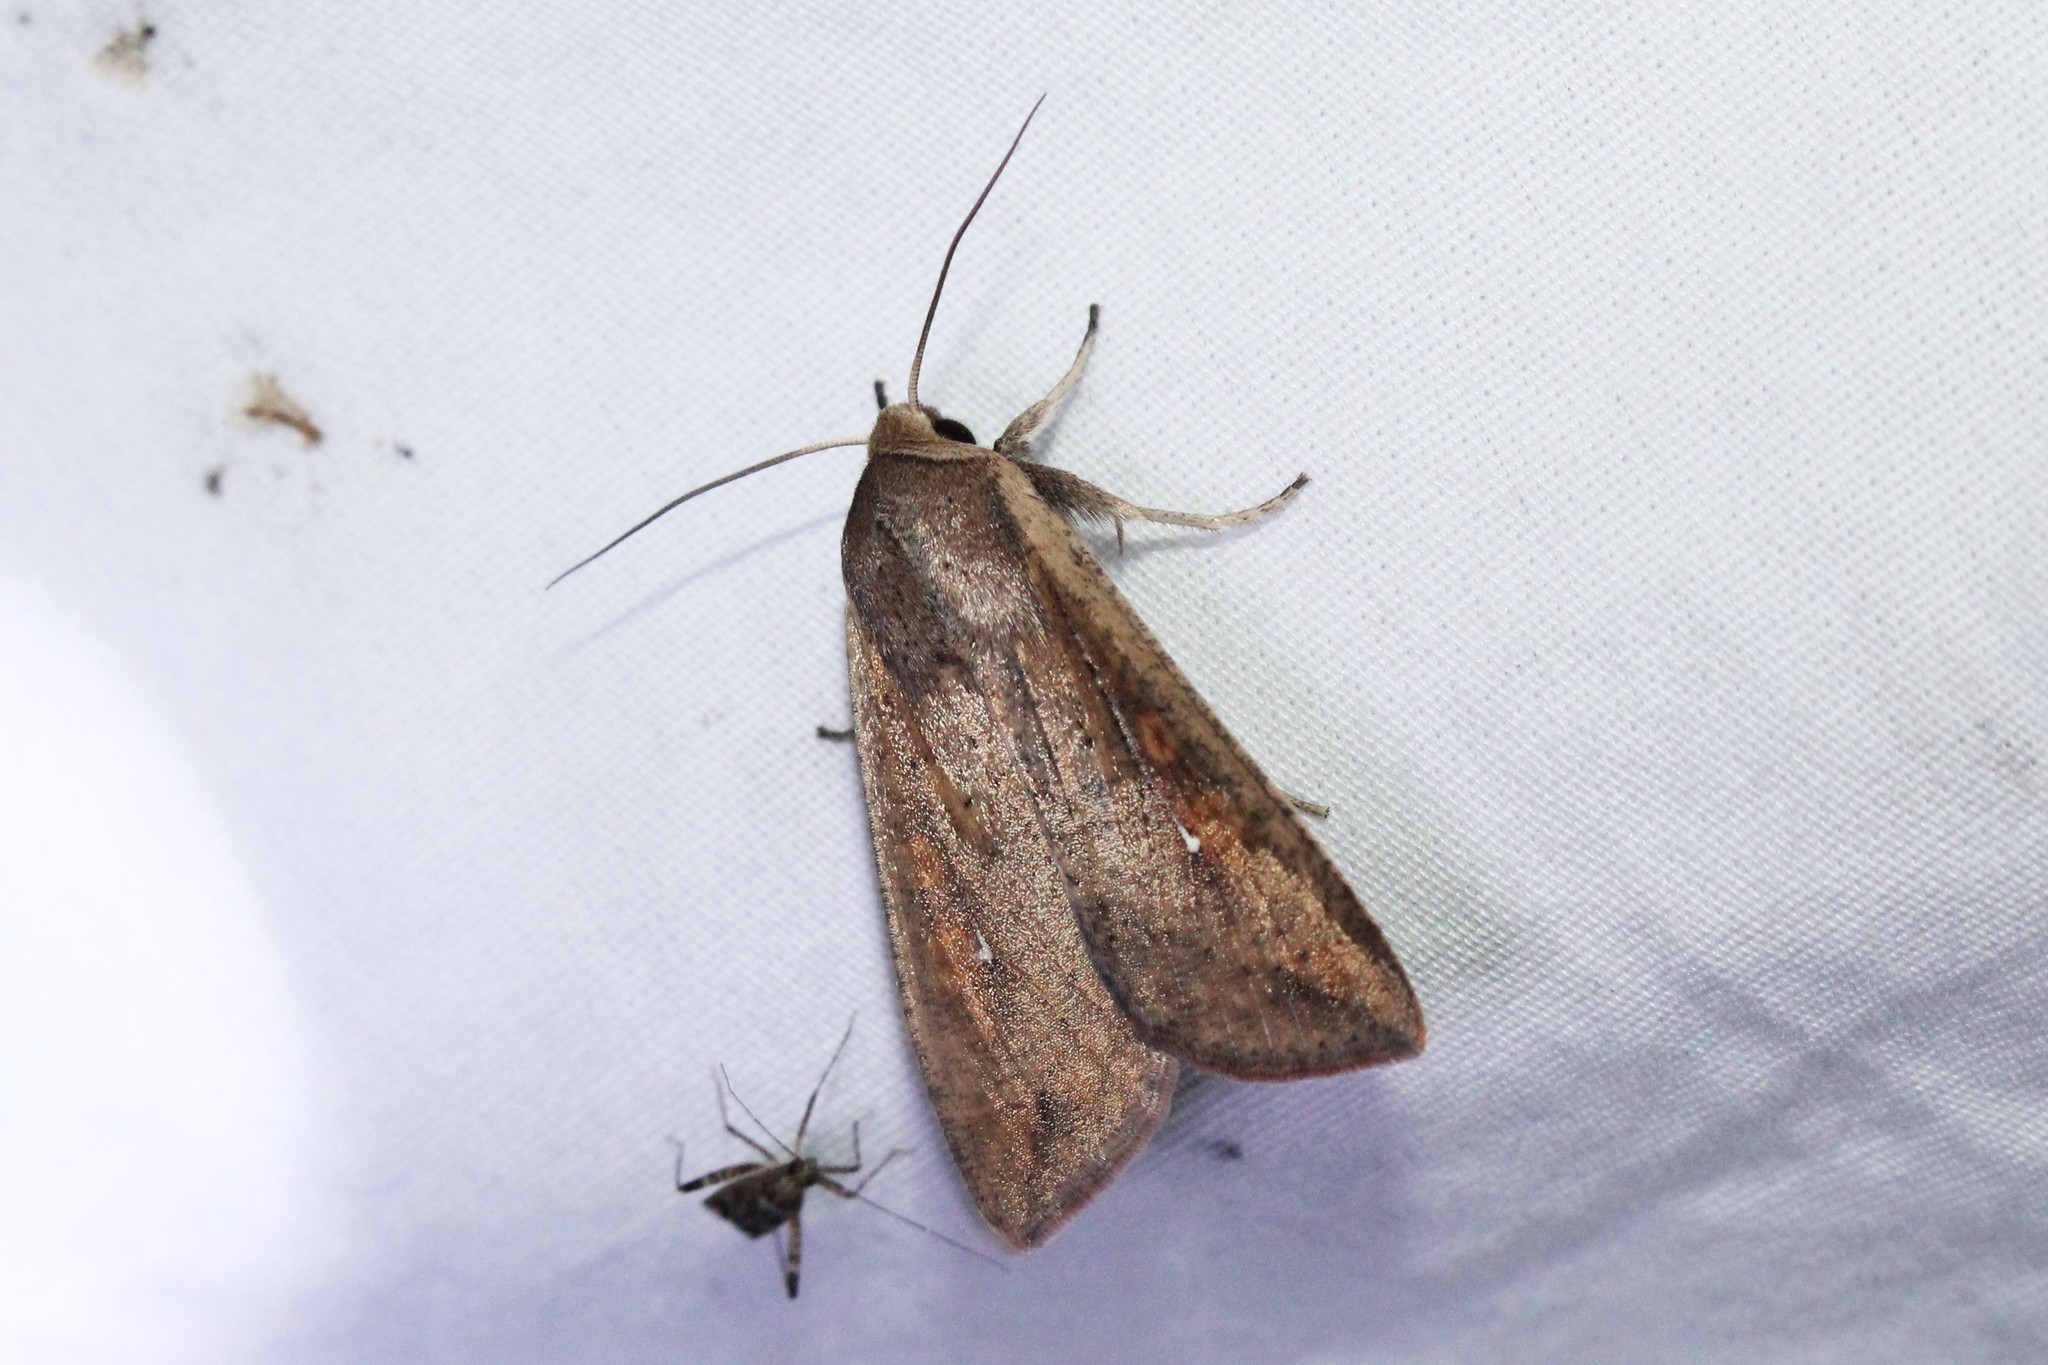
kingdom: Animalia
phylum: Arthropoda
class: Insecta
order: Lepidoptera
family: Noctuidae
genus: Mythimna
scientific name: Mythimna unipuncta
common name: White-speck
